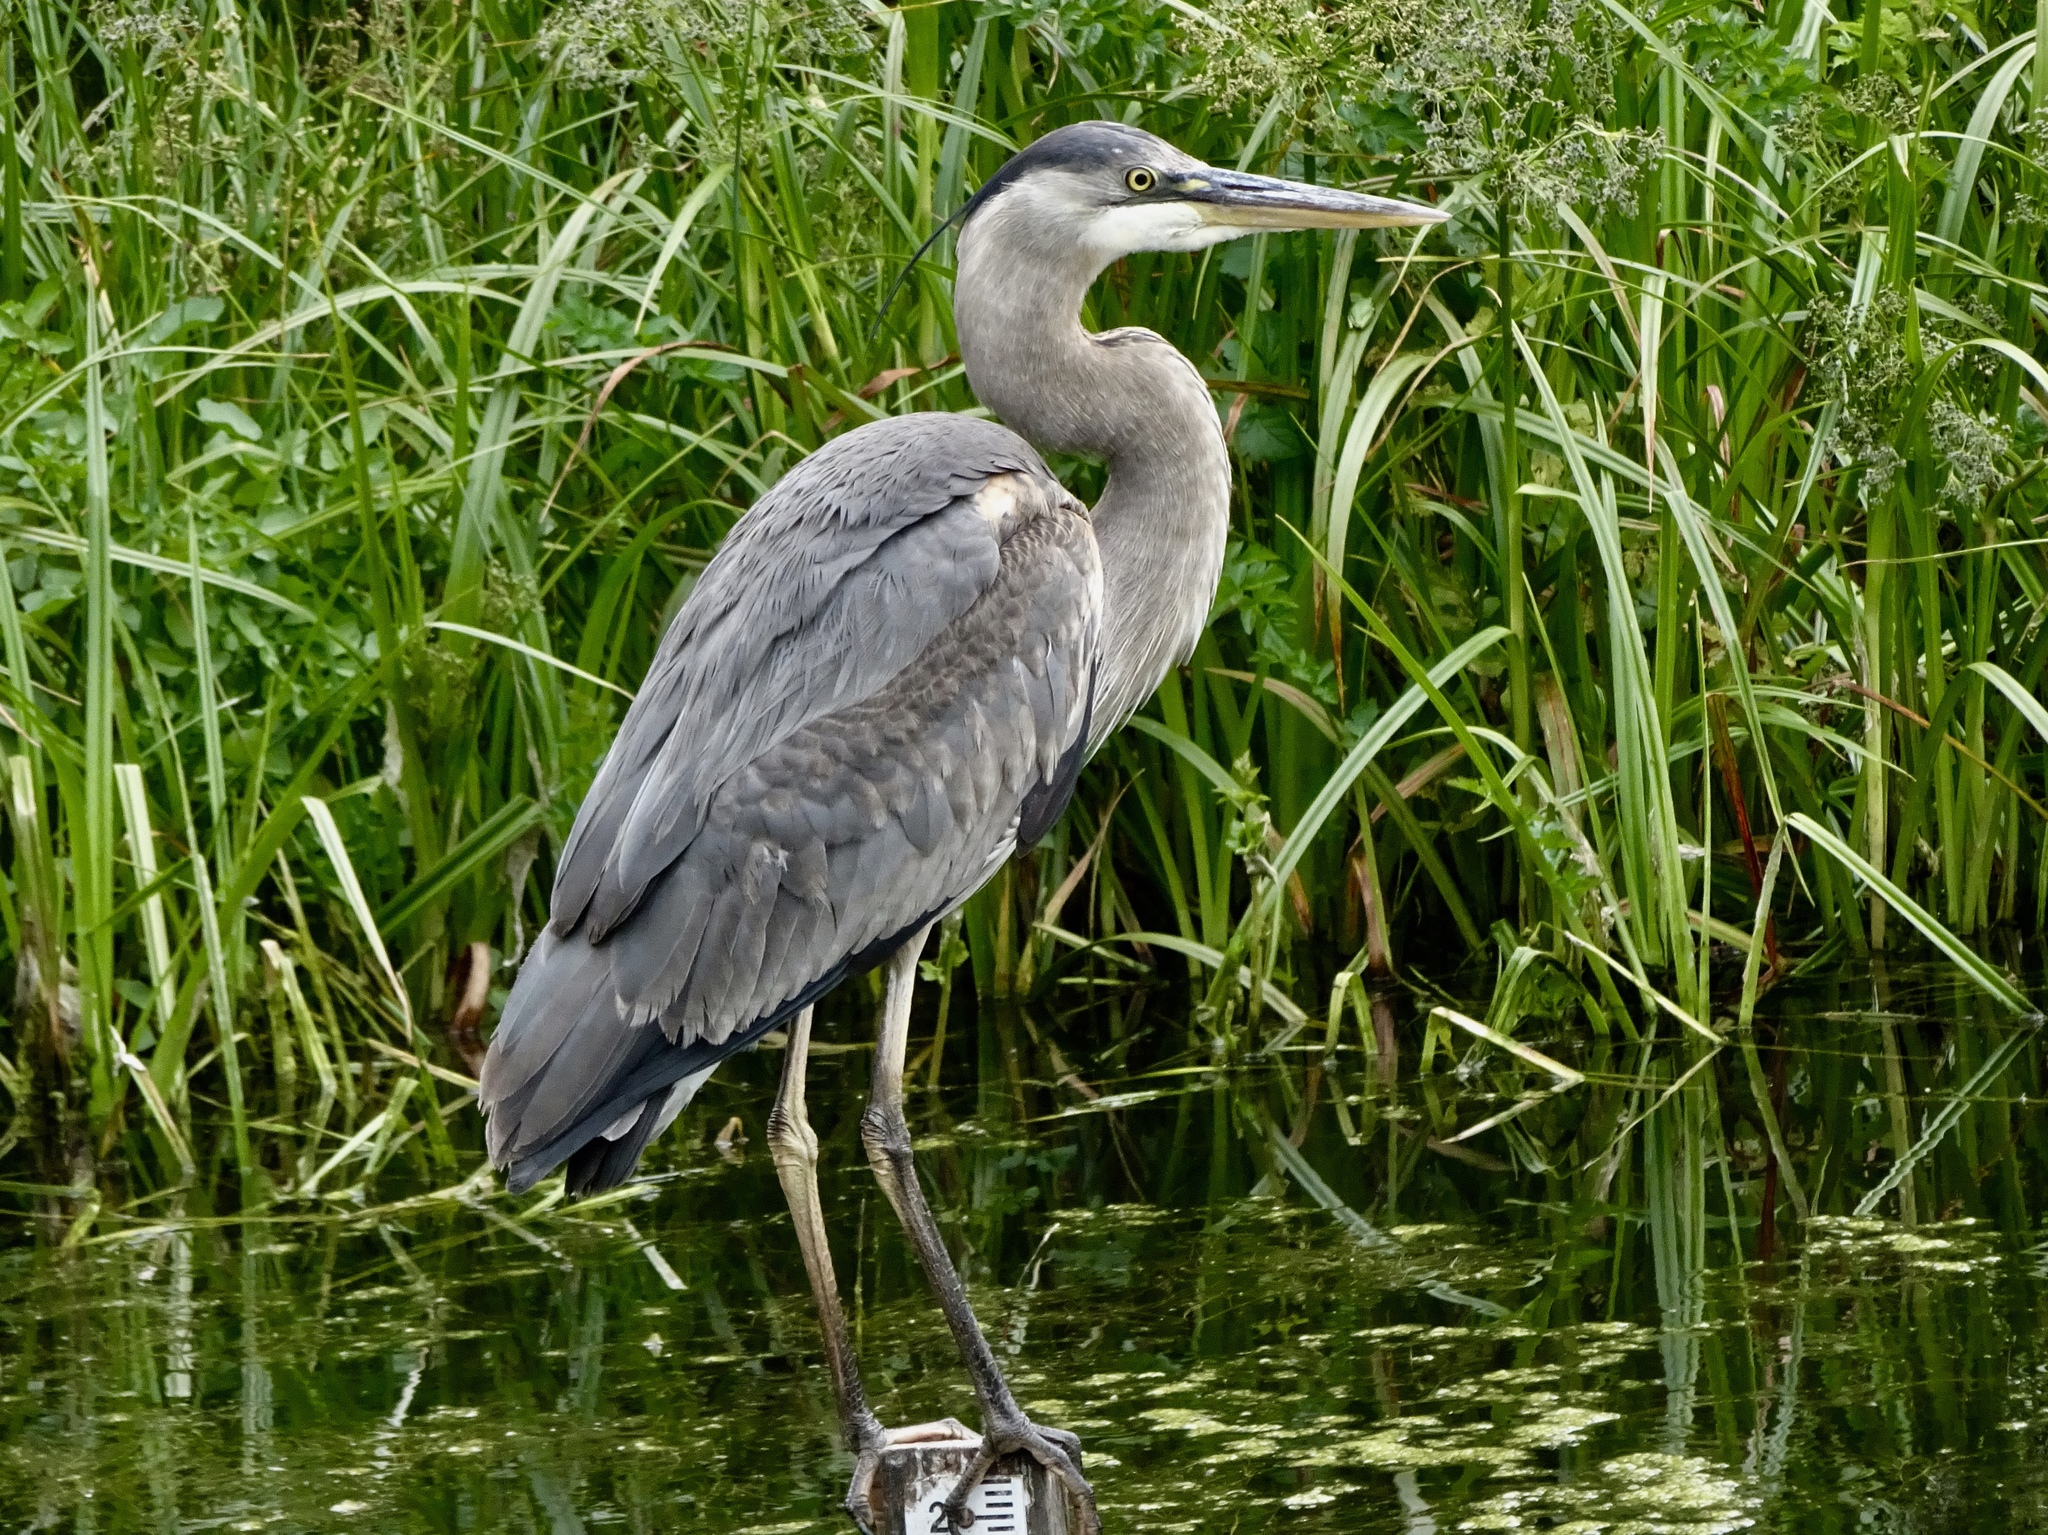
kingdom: Animalia
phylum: Chordata
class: Aves
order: Pelecaniformes
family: Ardeidae
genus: Ardea
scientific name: Ardea herodias
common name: Great blue heron
